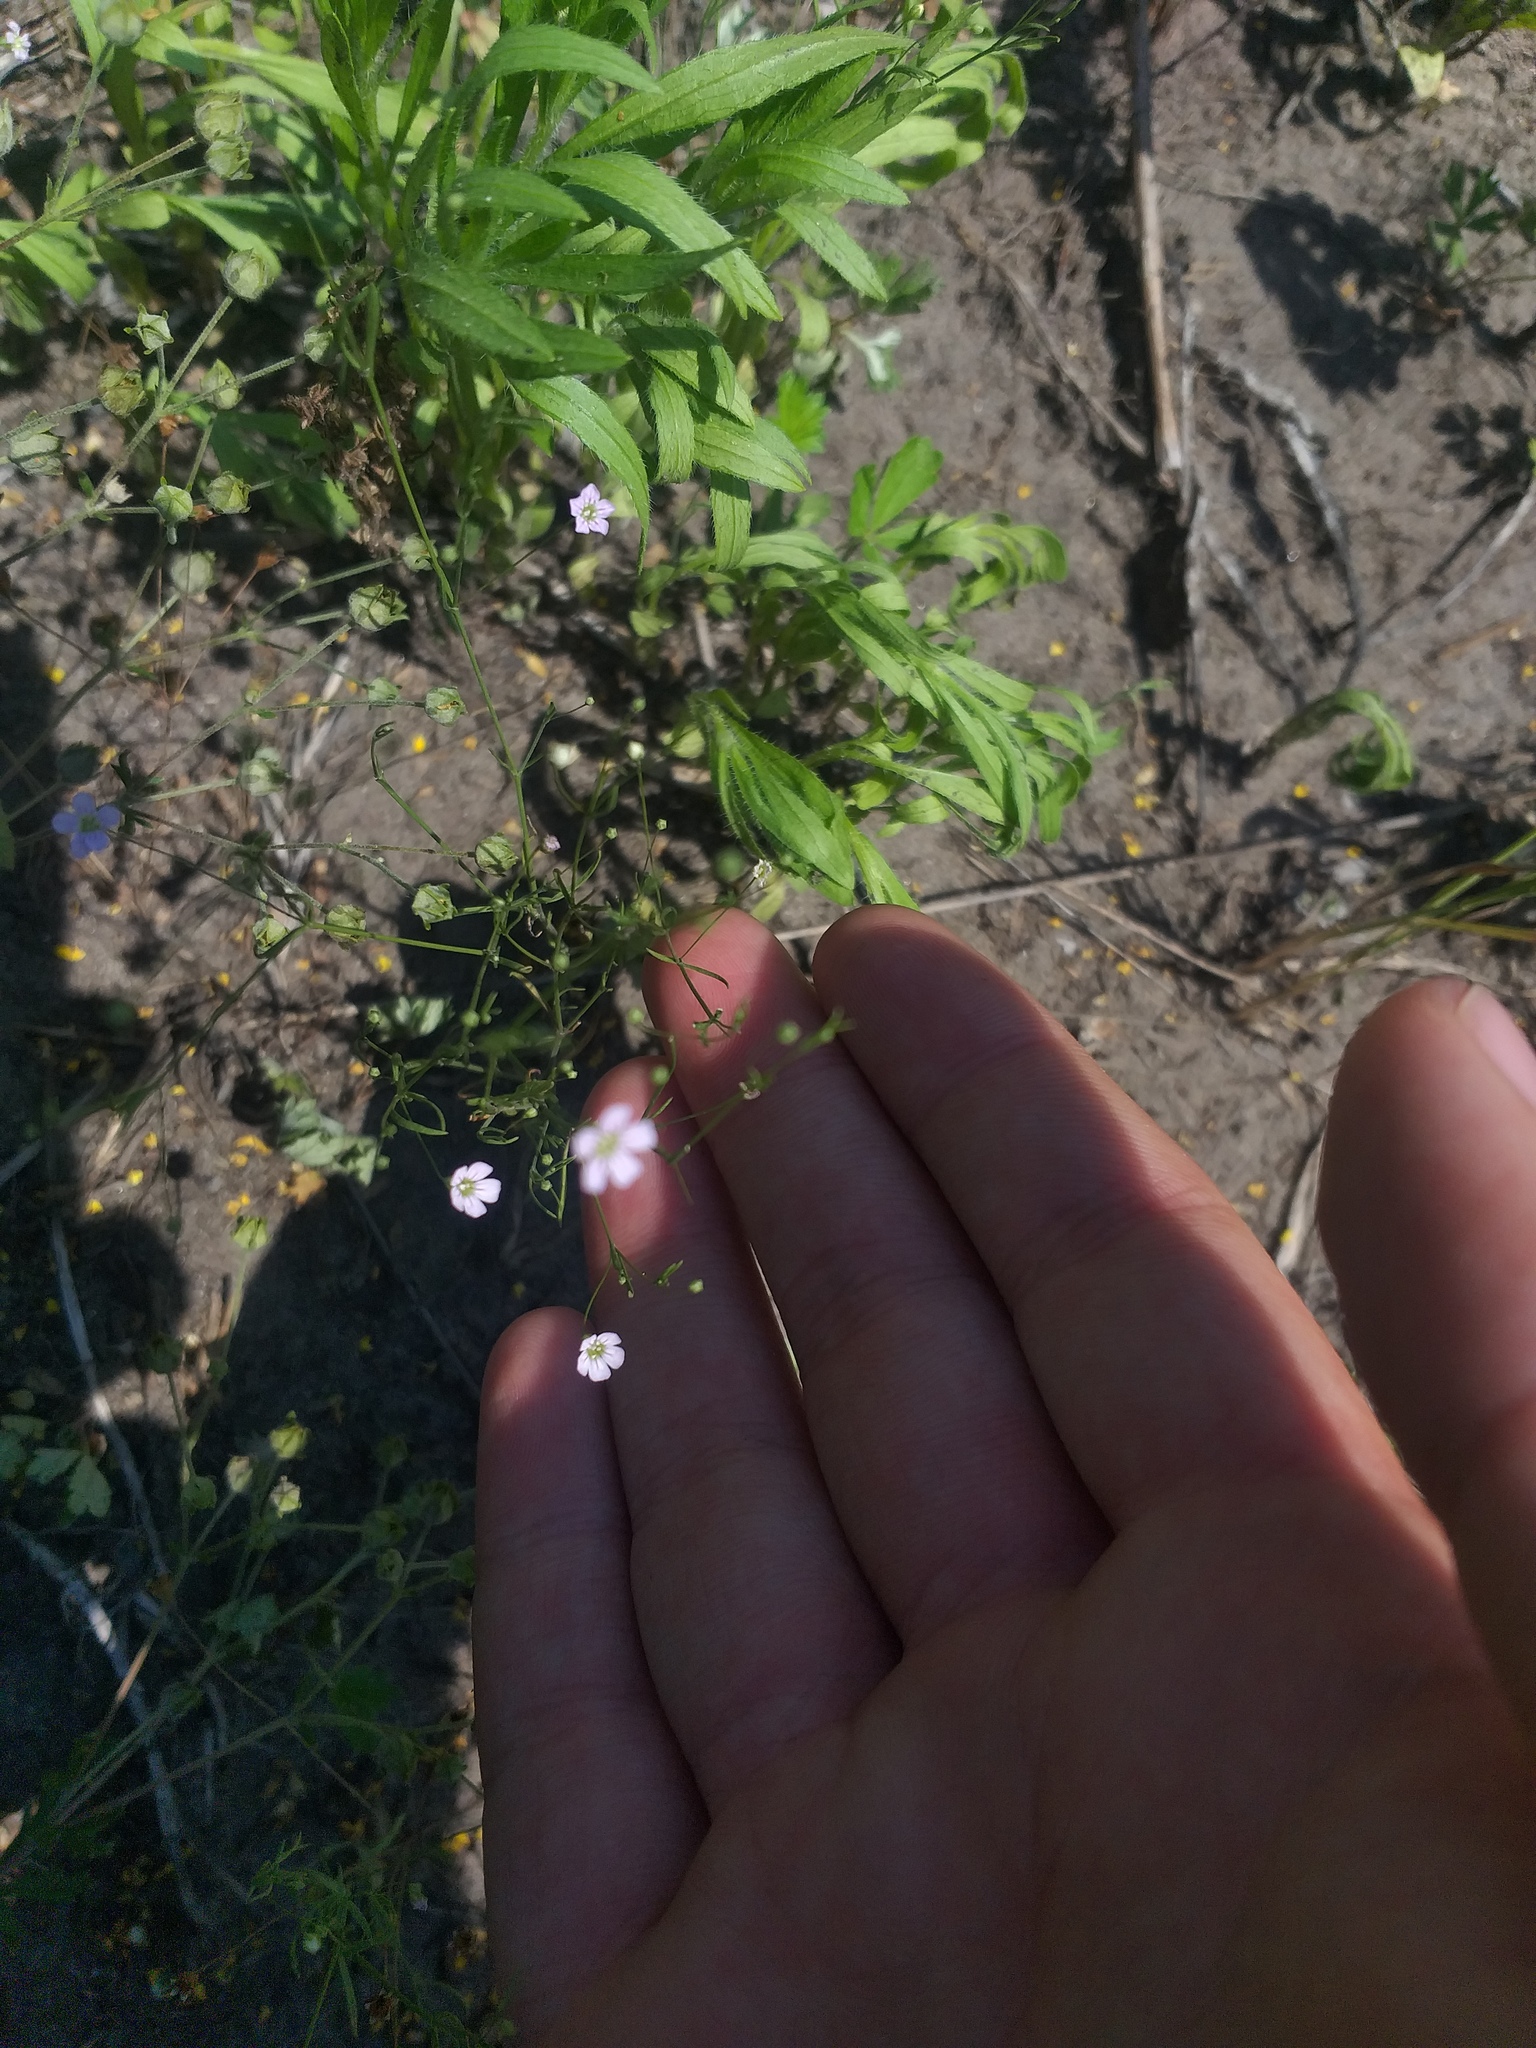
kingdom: Plantae
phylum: Tracheophyta
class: Magnoliopsida
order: Caryophyllales
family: Caryophyllaceae
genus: Psammophiliella
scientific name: Psammophiliella muralis
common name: Cushion baby's-breath
